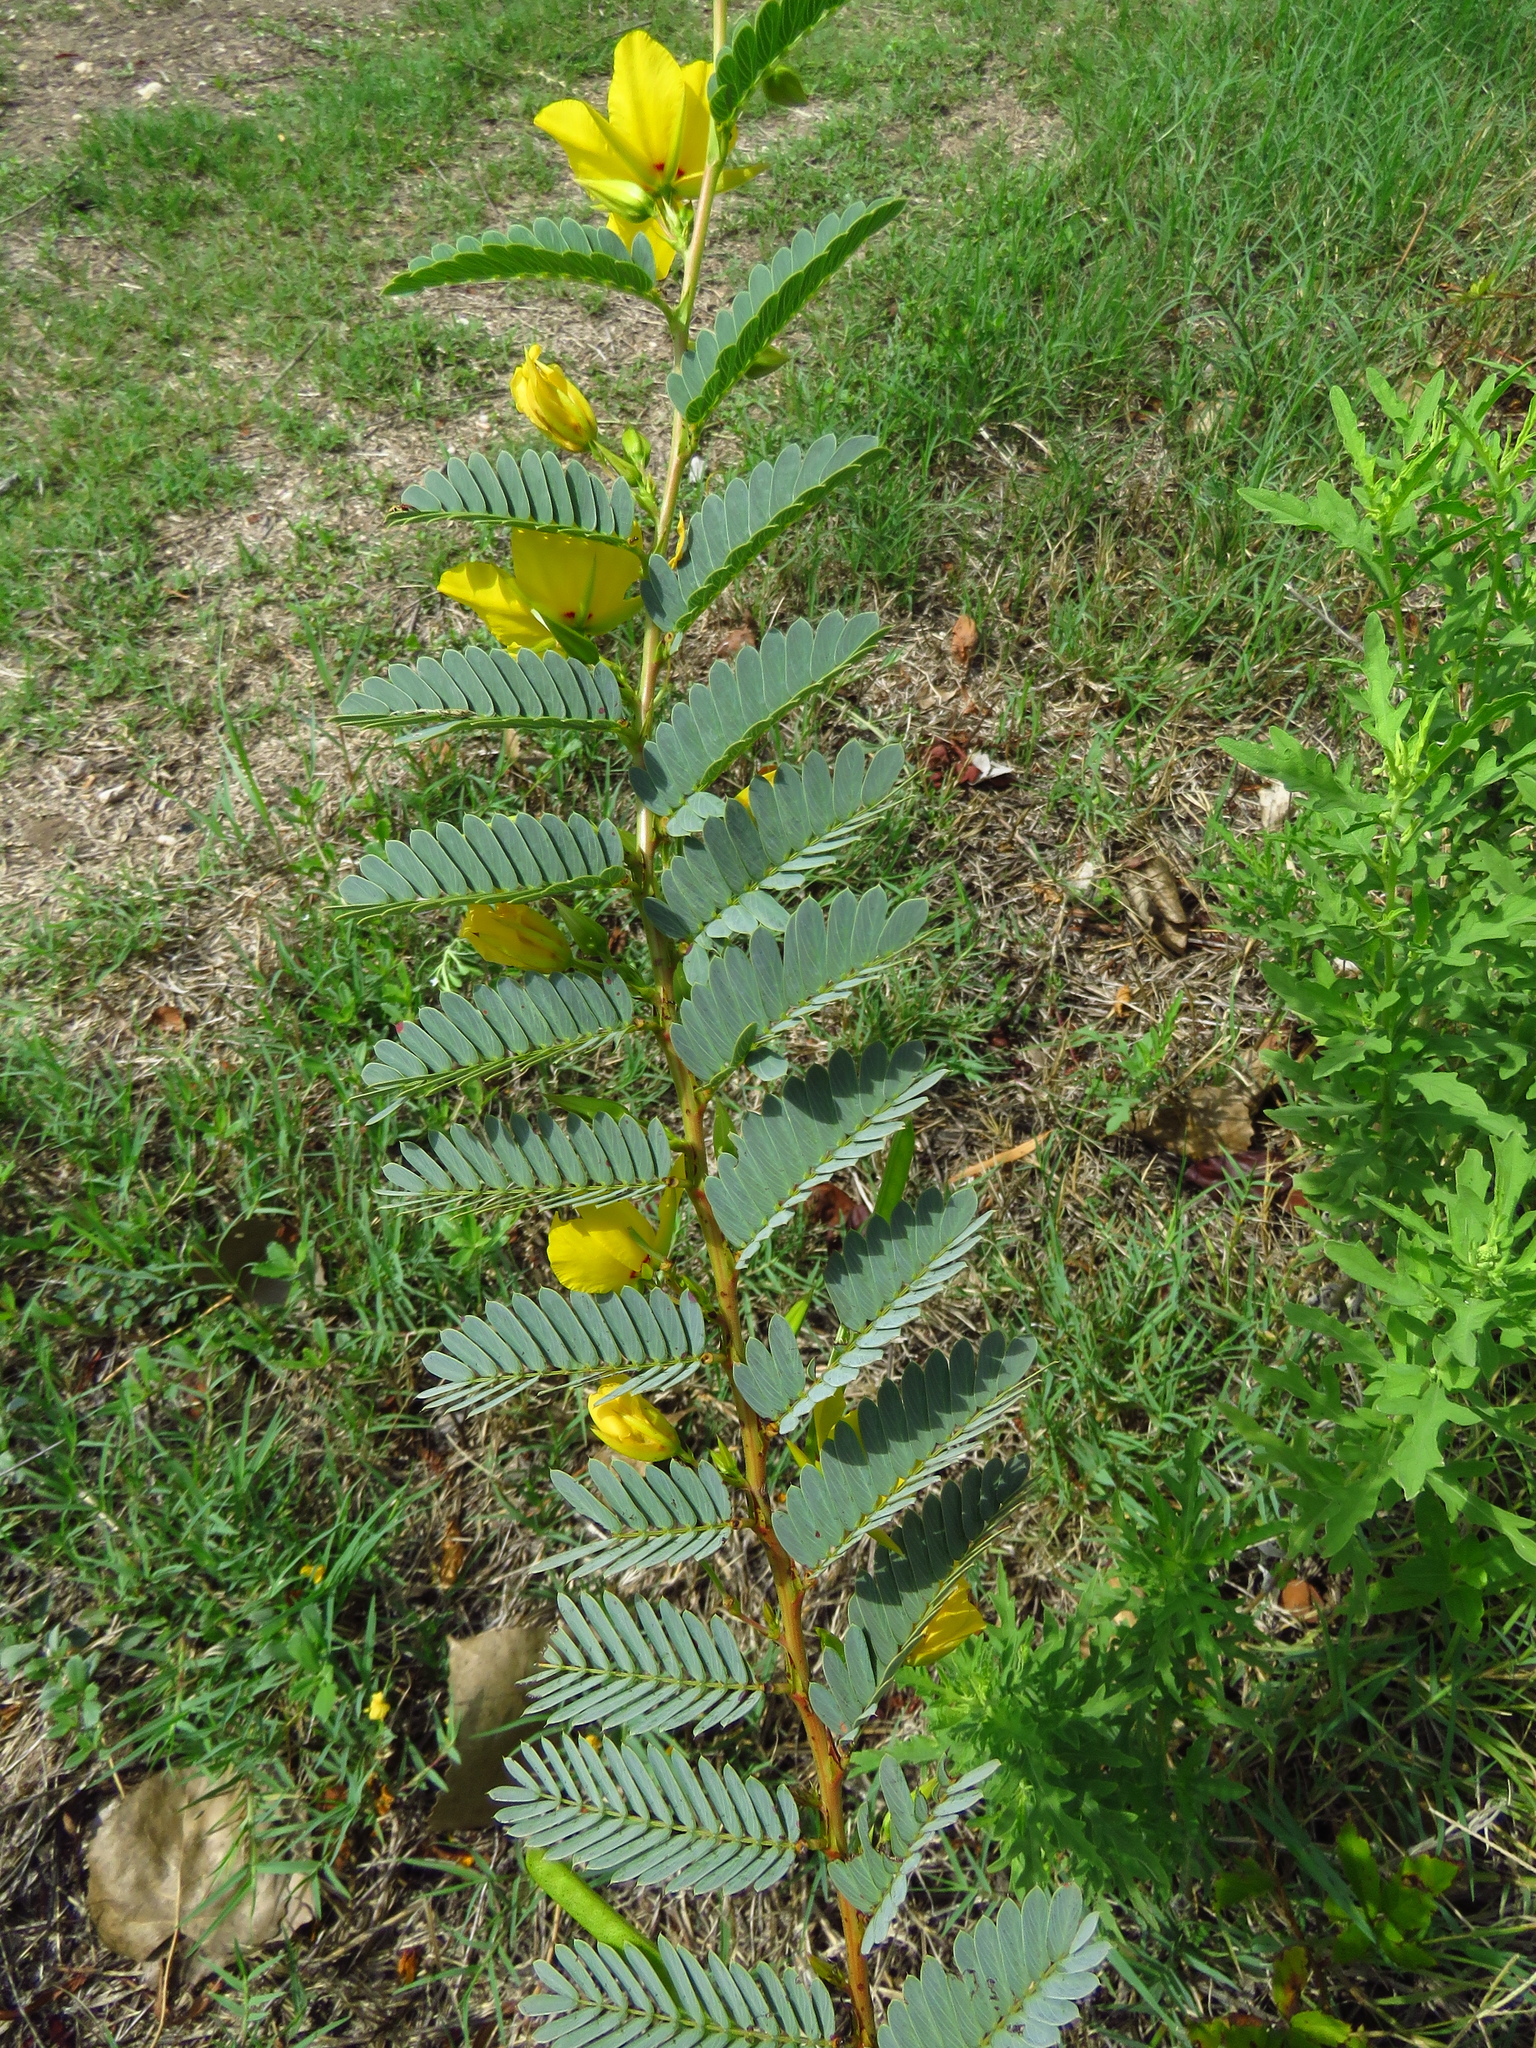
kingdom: Plantae
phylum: Tracheophyta
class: Magnoliopsida
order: Fabales
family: Fabaceae
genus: Chamaecrista
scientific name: Chamaecrista fasciculata
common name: Golden cassia
